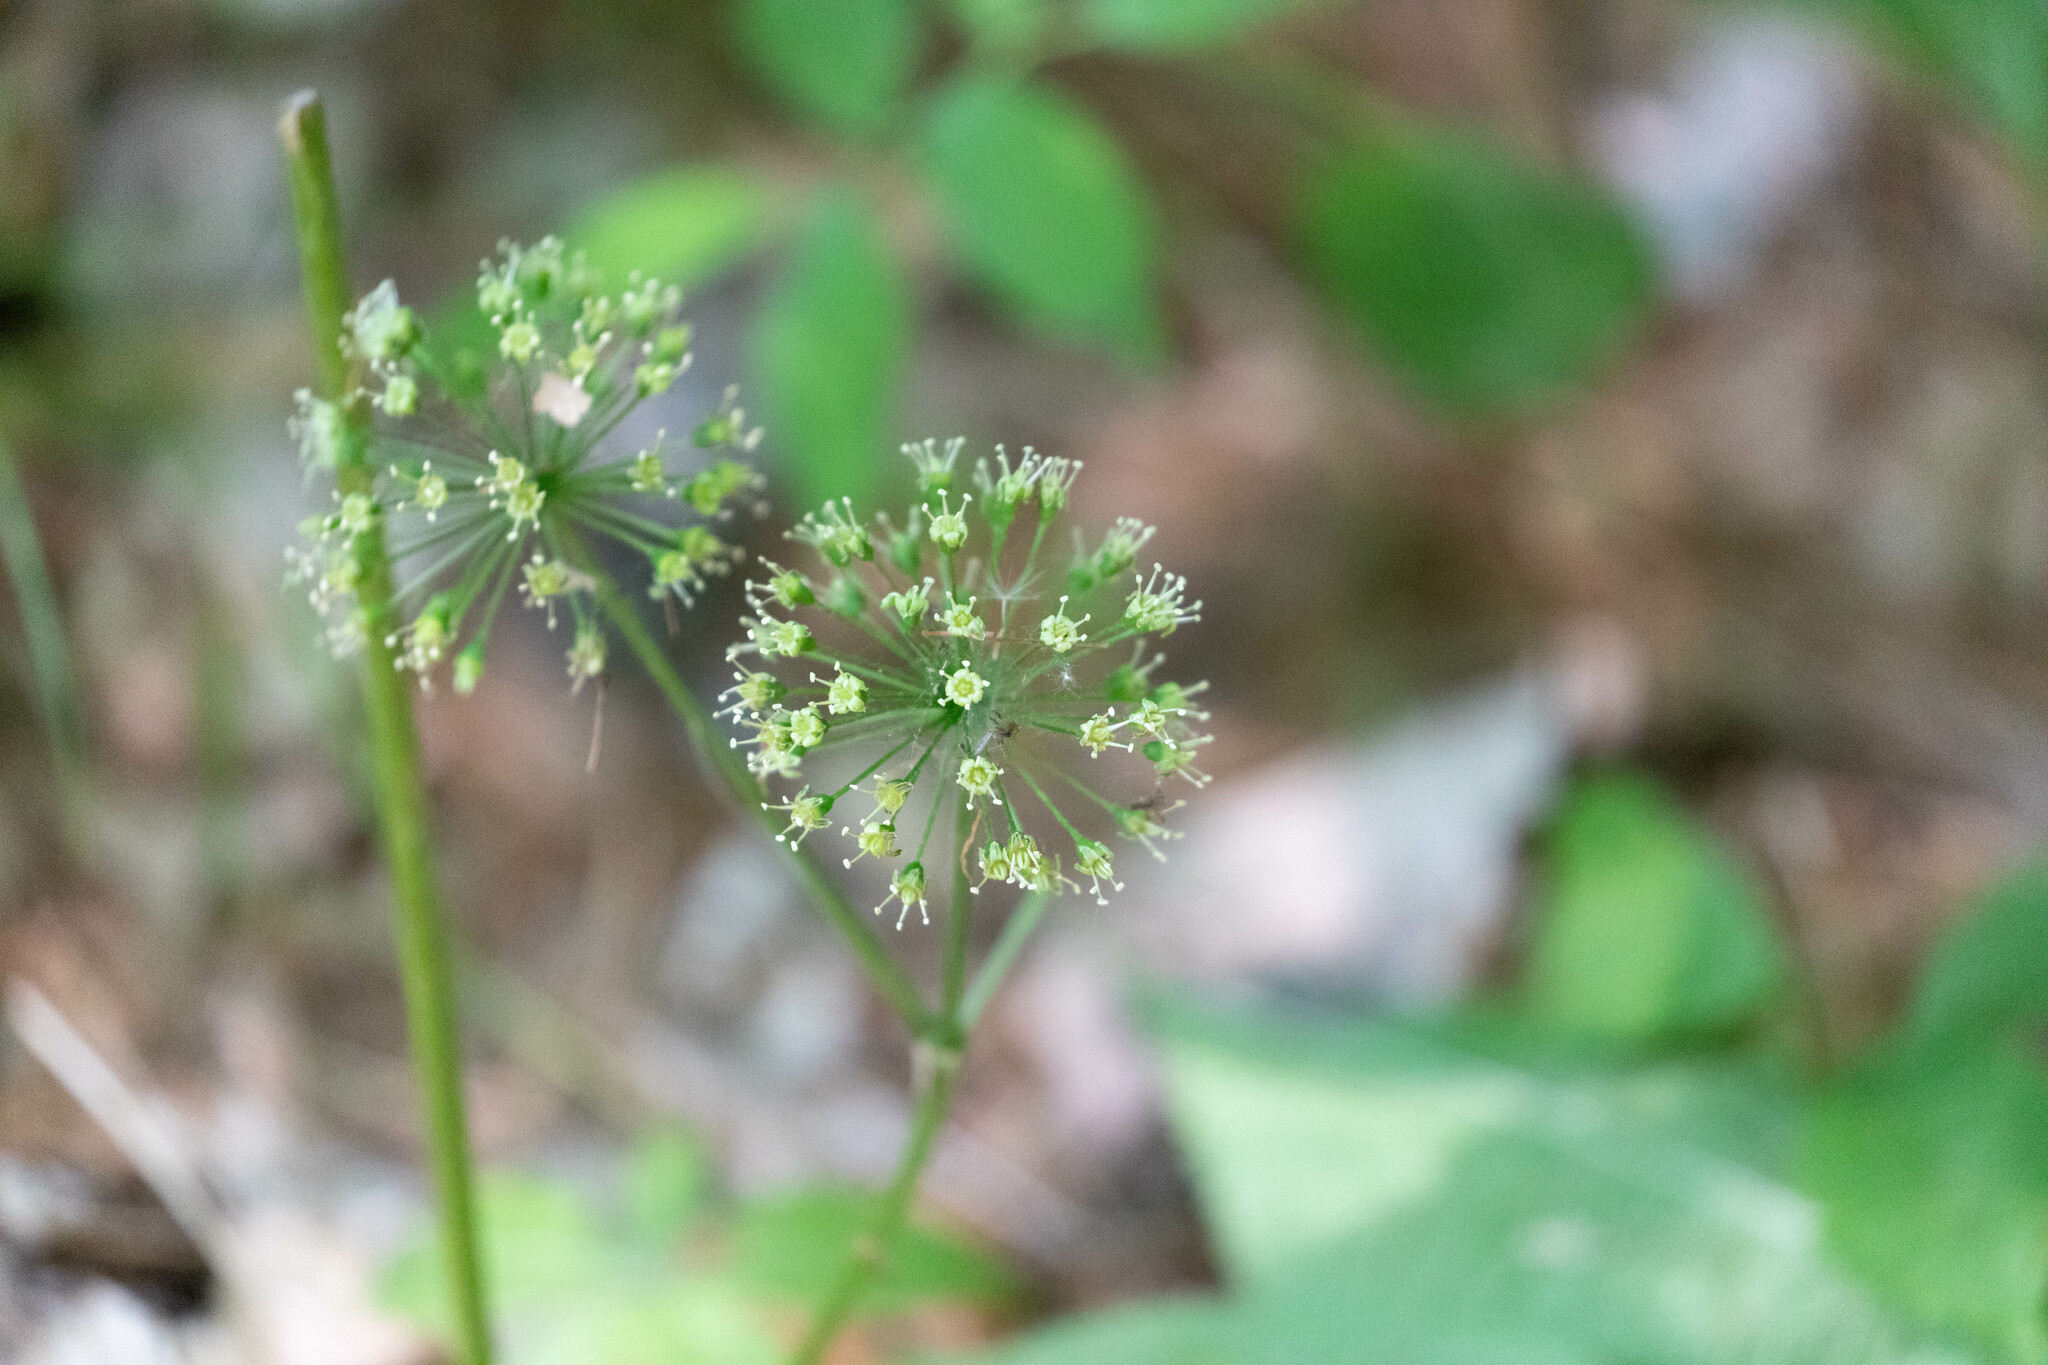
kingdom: Plantae
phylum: Tracheophyta
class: Magnoliopsida
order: Apiales
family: Araliaceae
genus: Aralia
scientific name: Aralia nudicaulis
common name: Wild sarsaparilla
